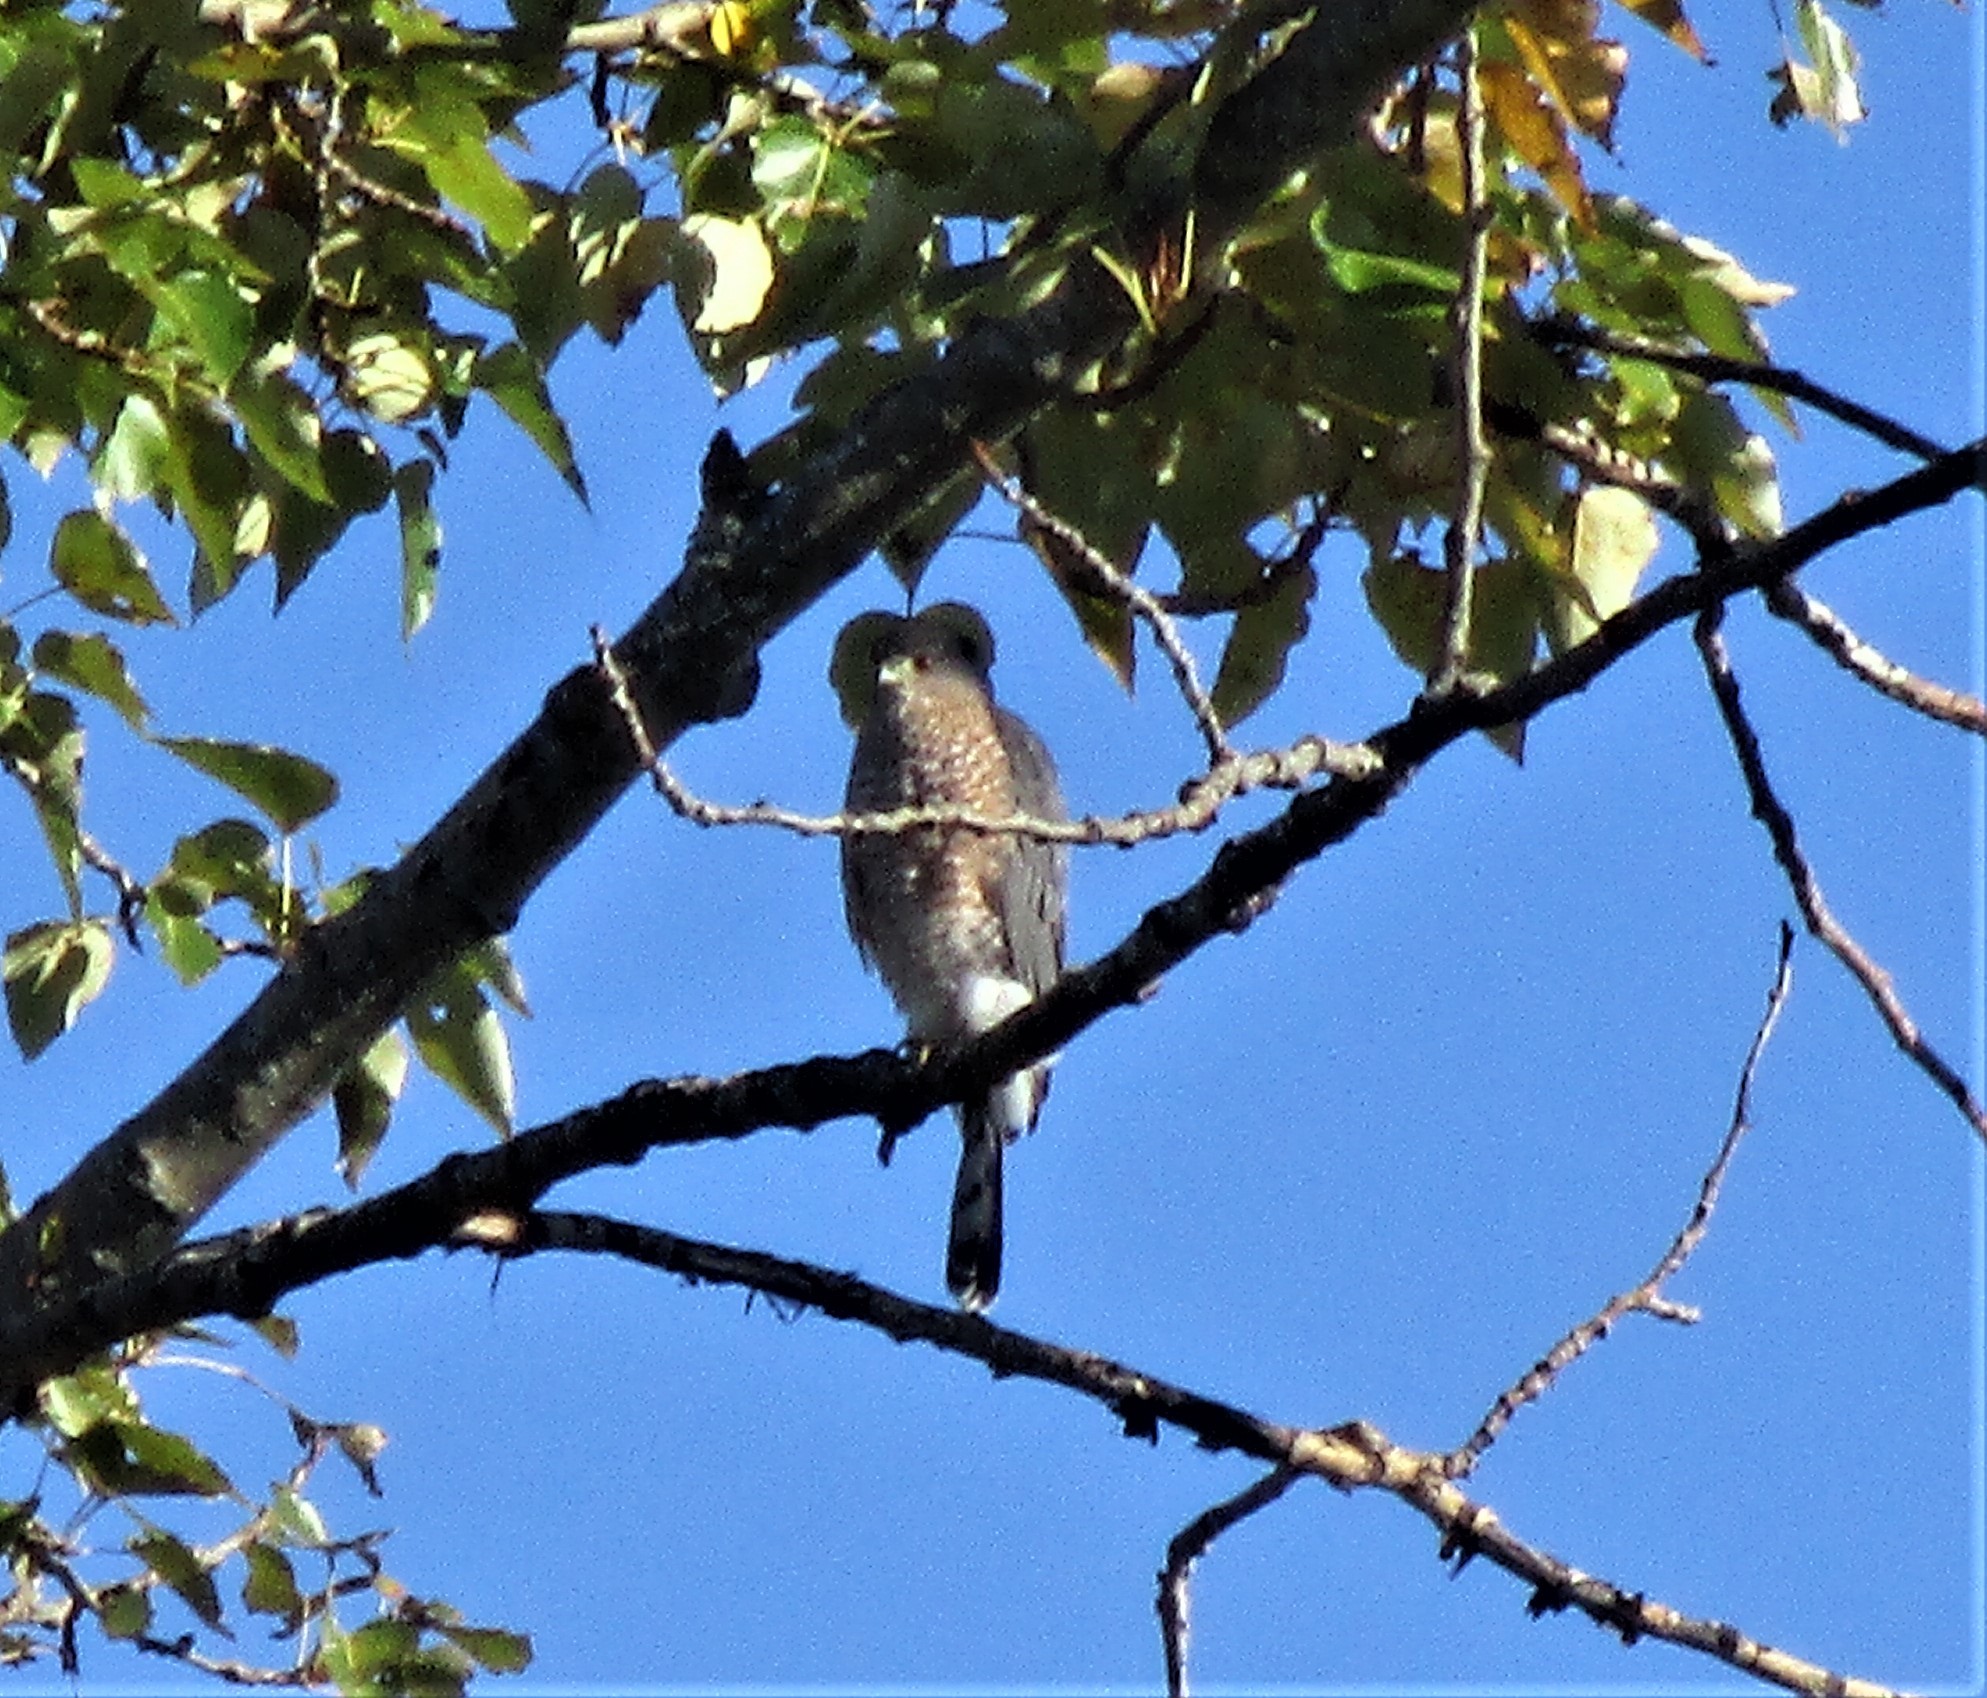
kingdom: Animalia
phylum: Chordata
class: Aves
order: Accipitriformes
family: Accipitridae
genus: Accipiter
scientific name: Accipiter cooperii
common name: Cooper's hawk
